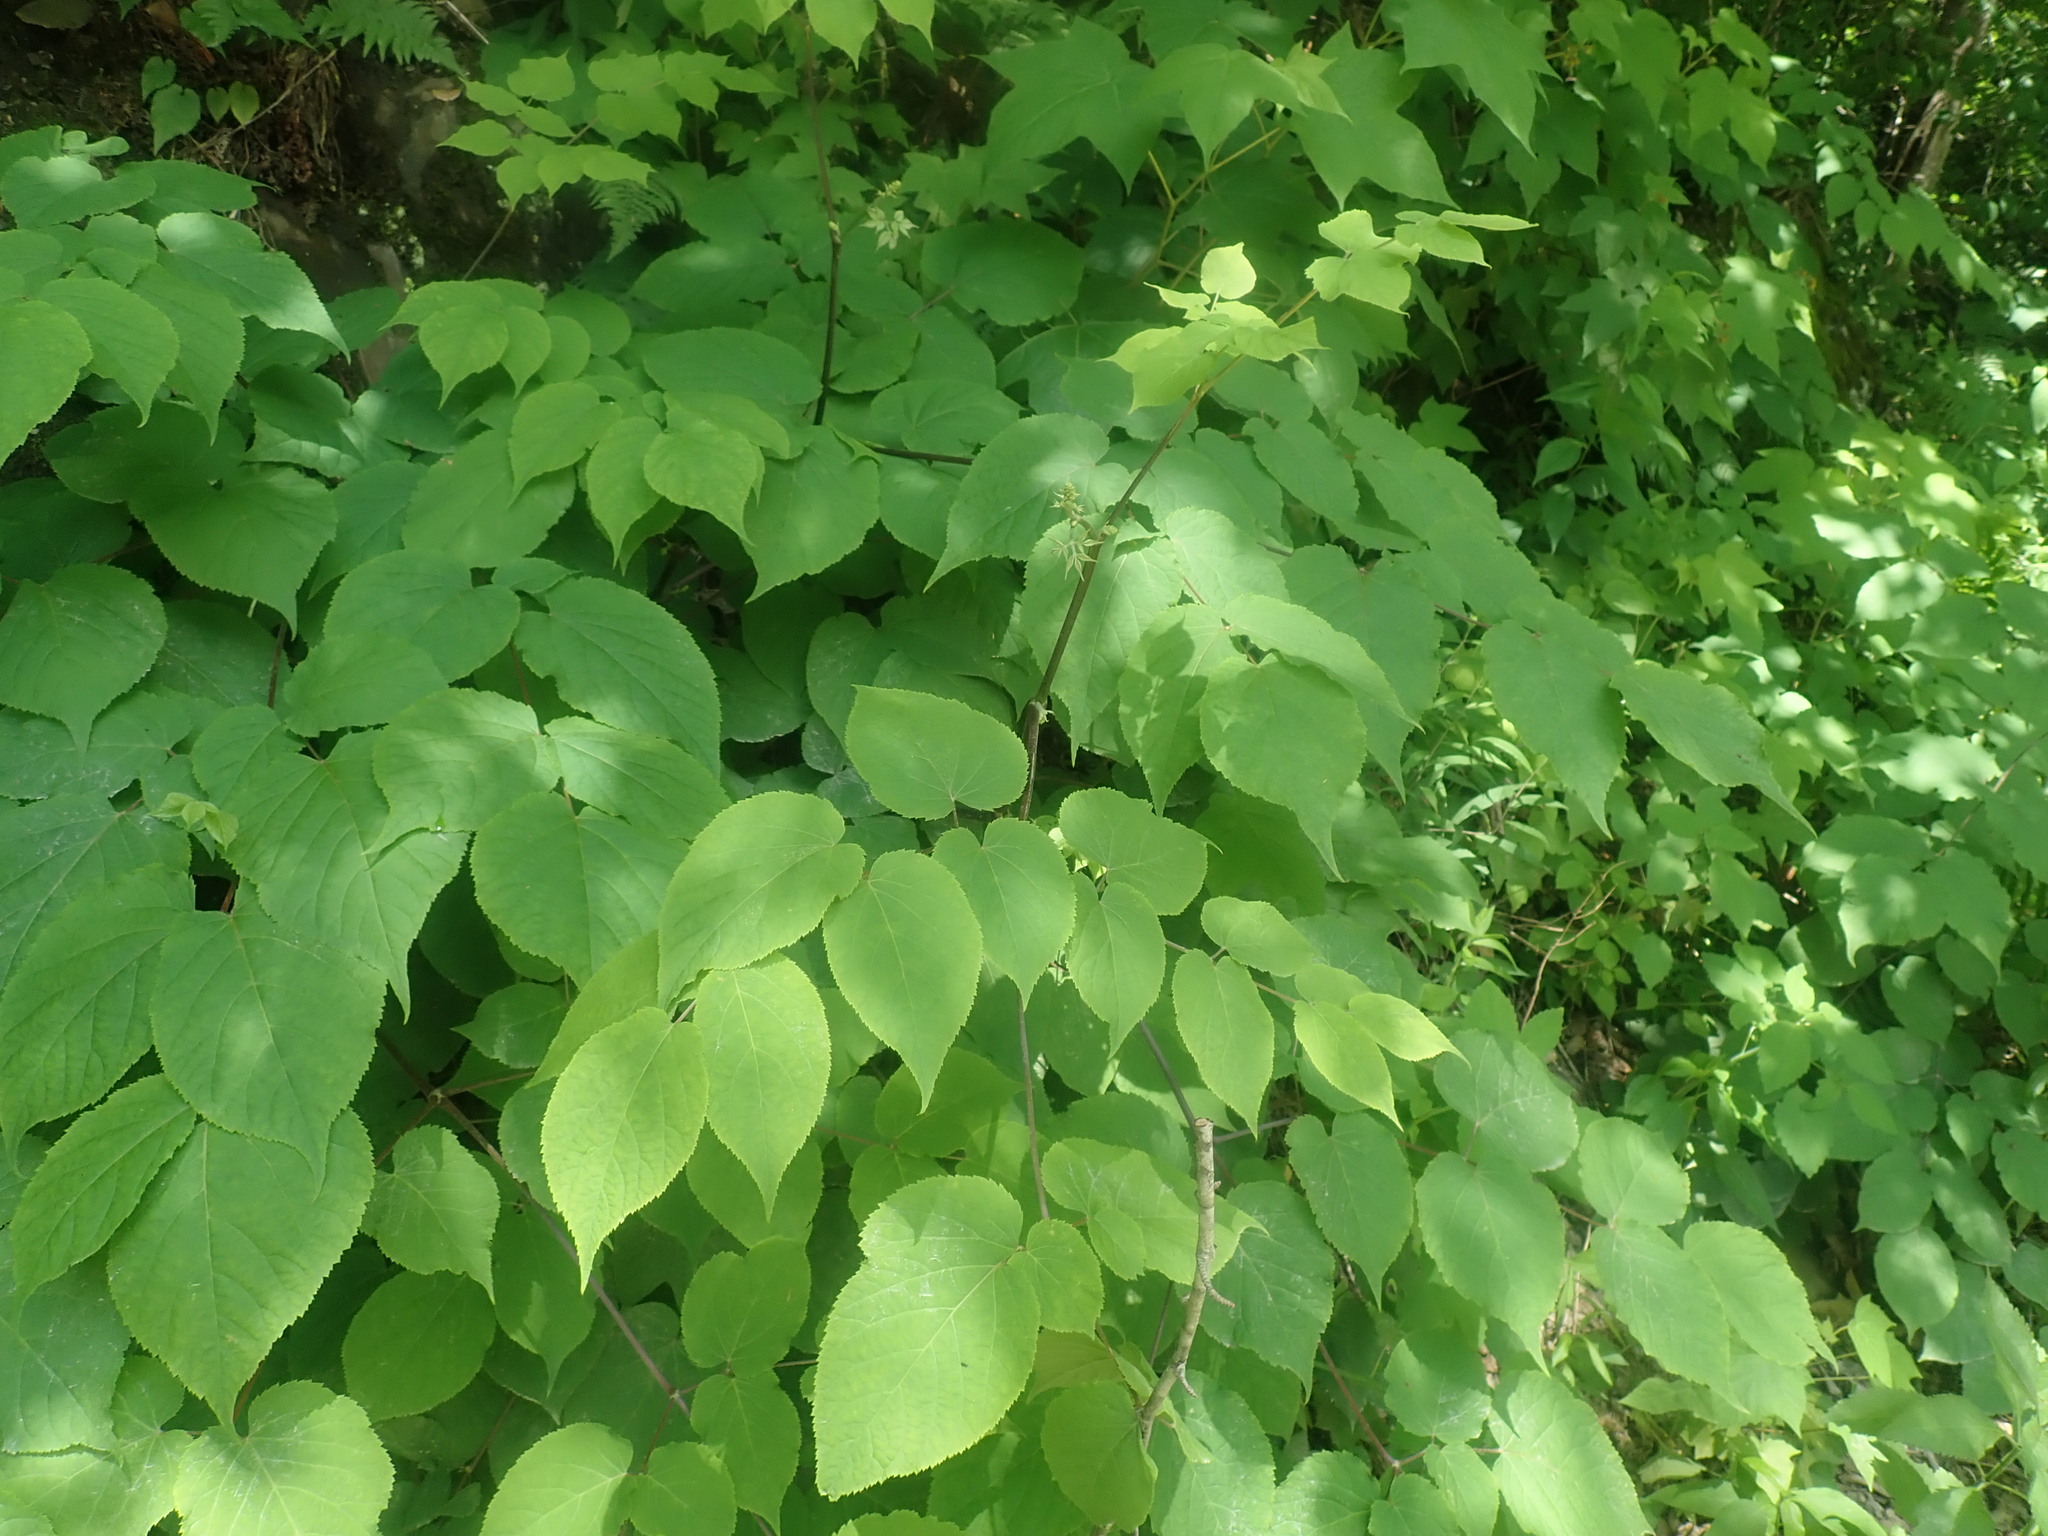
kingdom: Plantae
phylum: Tracheophyta
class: Magnoliopsida
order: Apiales
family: Araliaceae
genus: Aralia
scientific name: Aralia racemosa
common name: American-spikenard
